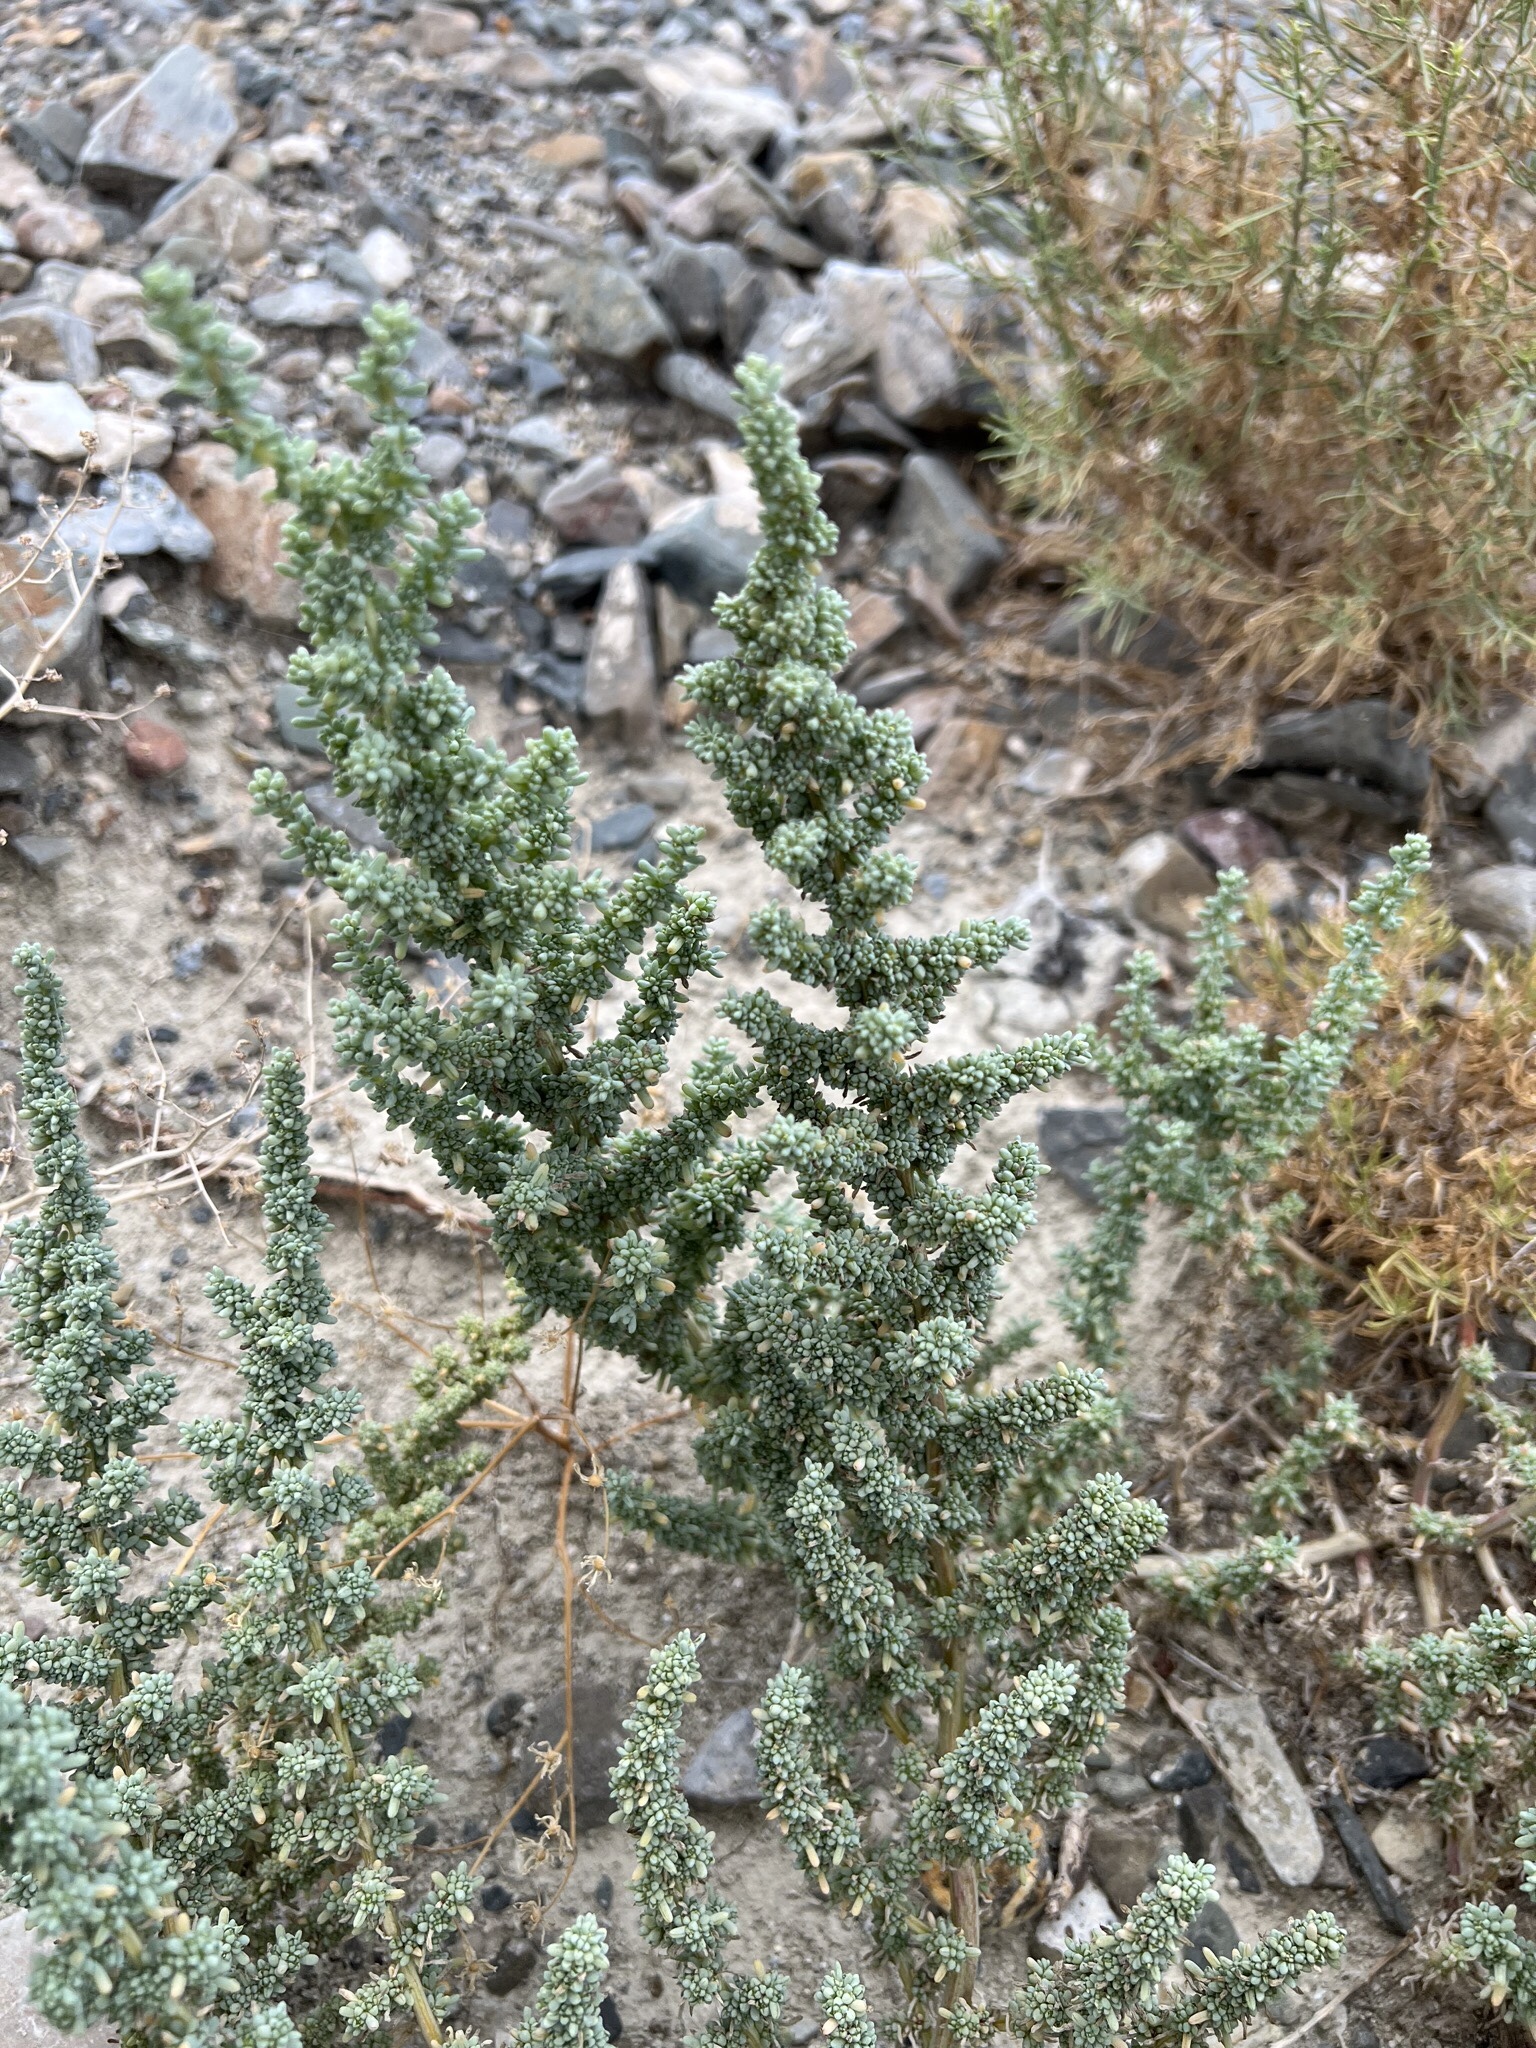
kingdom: Plantae
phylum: Tracheophyta
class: Magnoliopsida
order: Caryophyllales
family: Amaranthaceae
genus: Halogeton
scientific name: Halogeton glomeratus
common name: Saltlover
